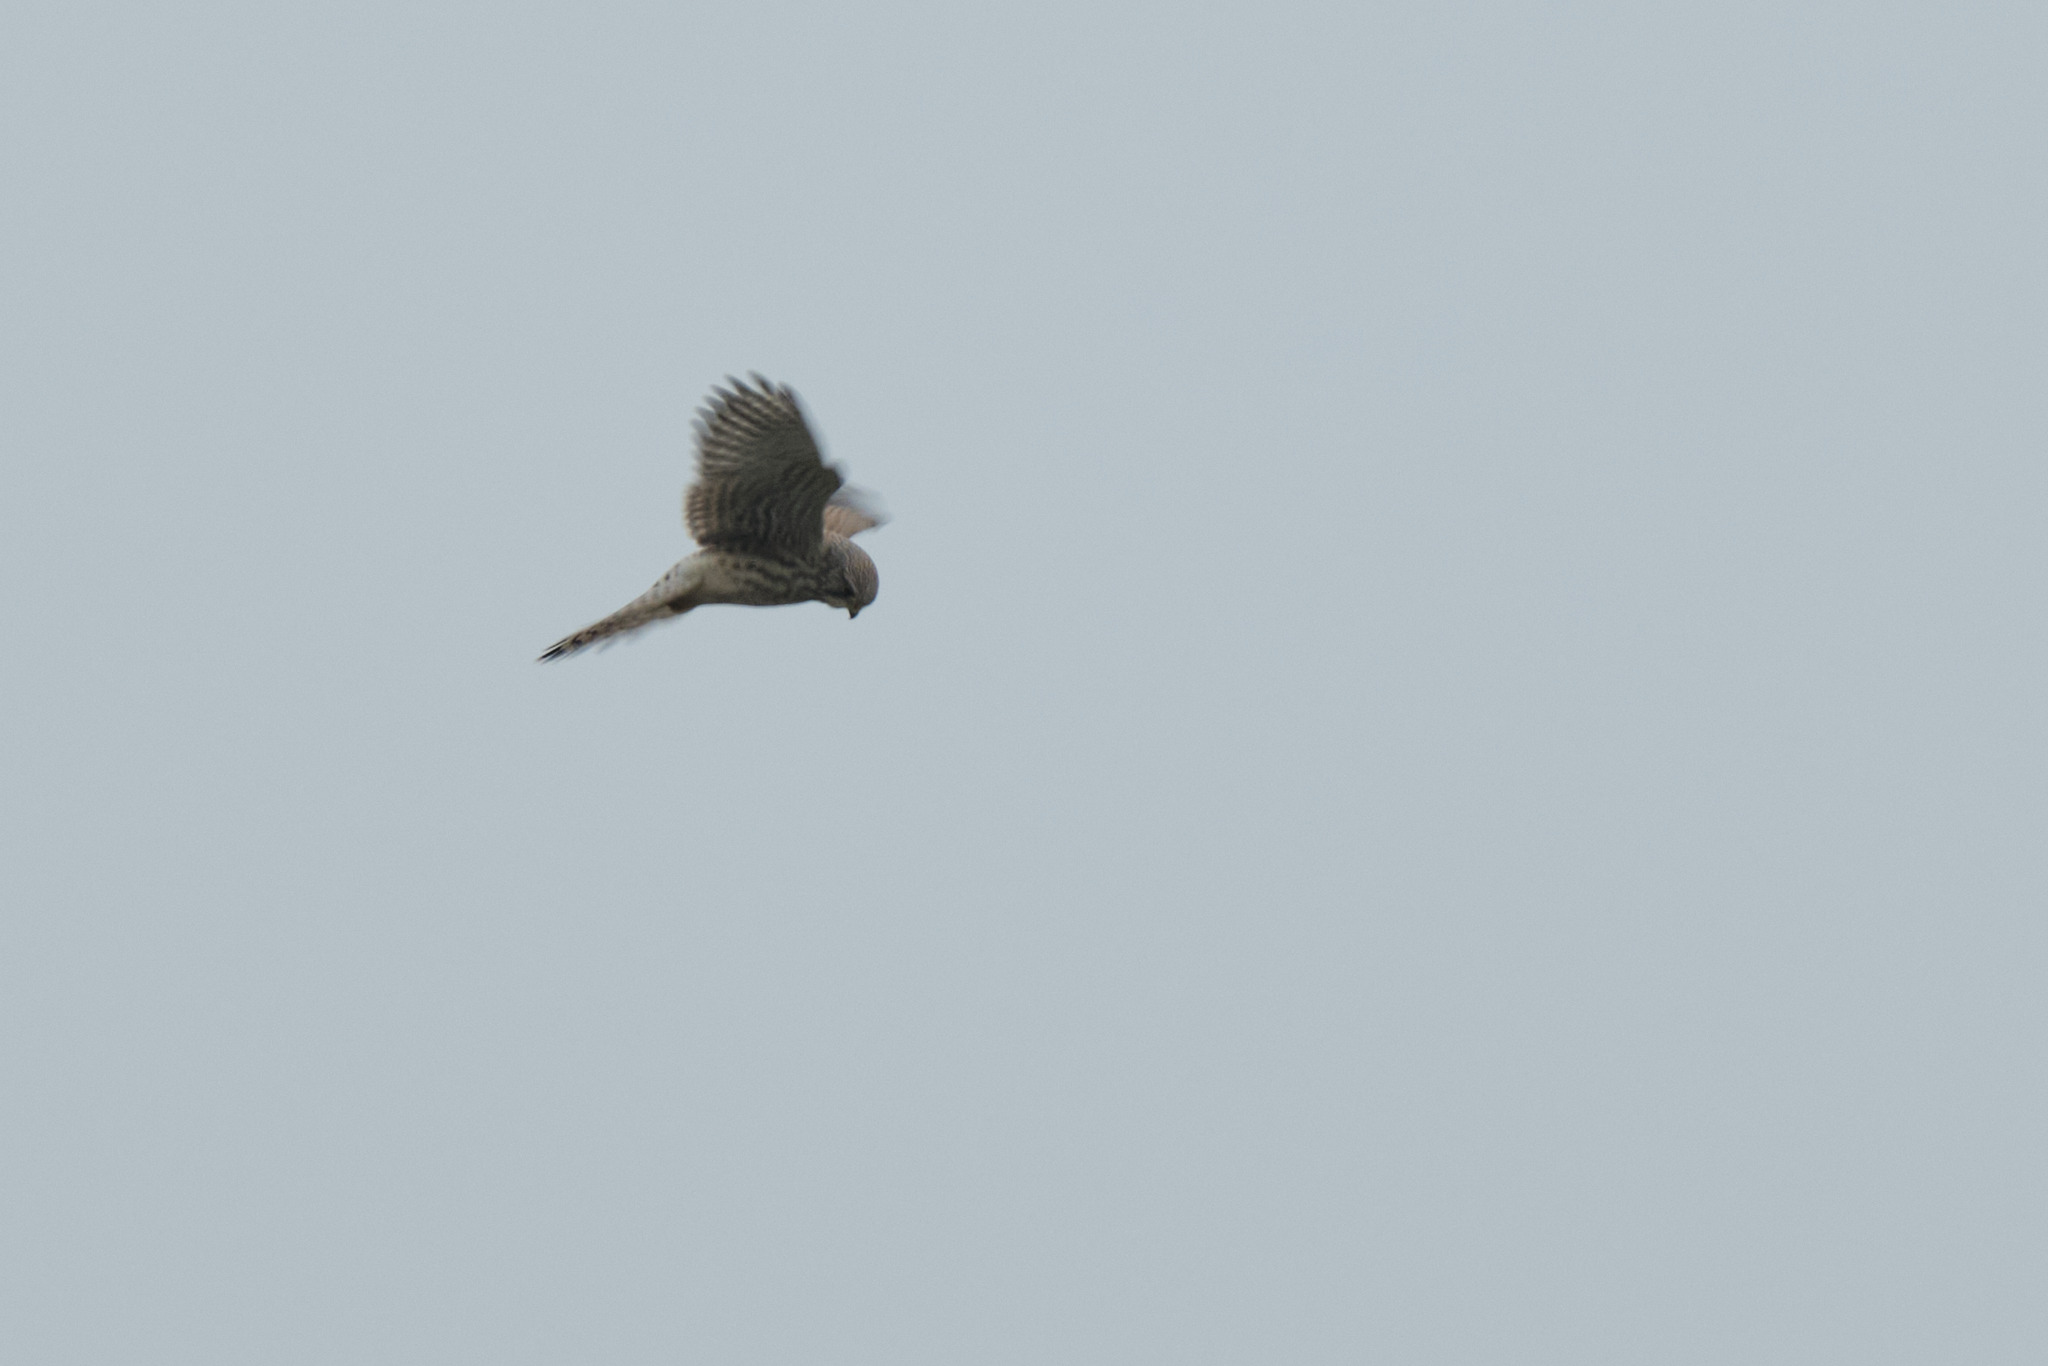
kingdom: Animalia
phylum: Chordata
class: Aves
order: Falconiformes
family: Falconidae
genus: Falco
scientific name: Falco tinnunculus
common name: Common kestrel
